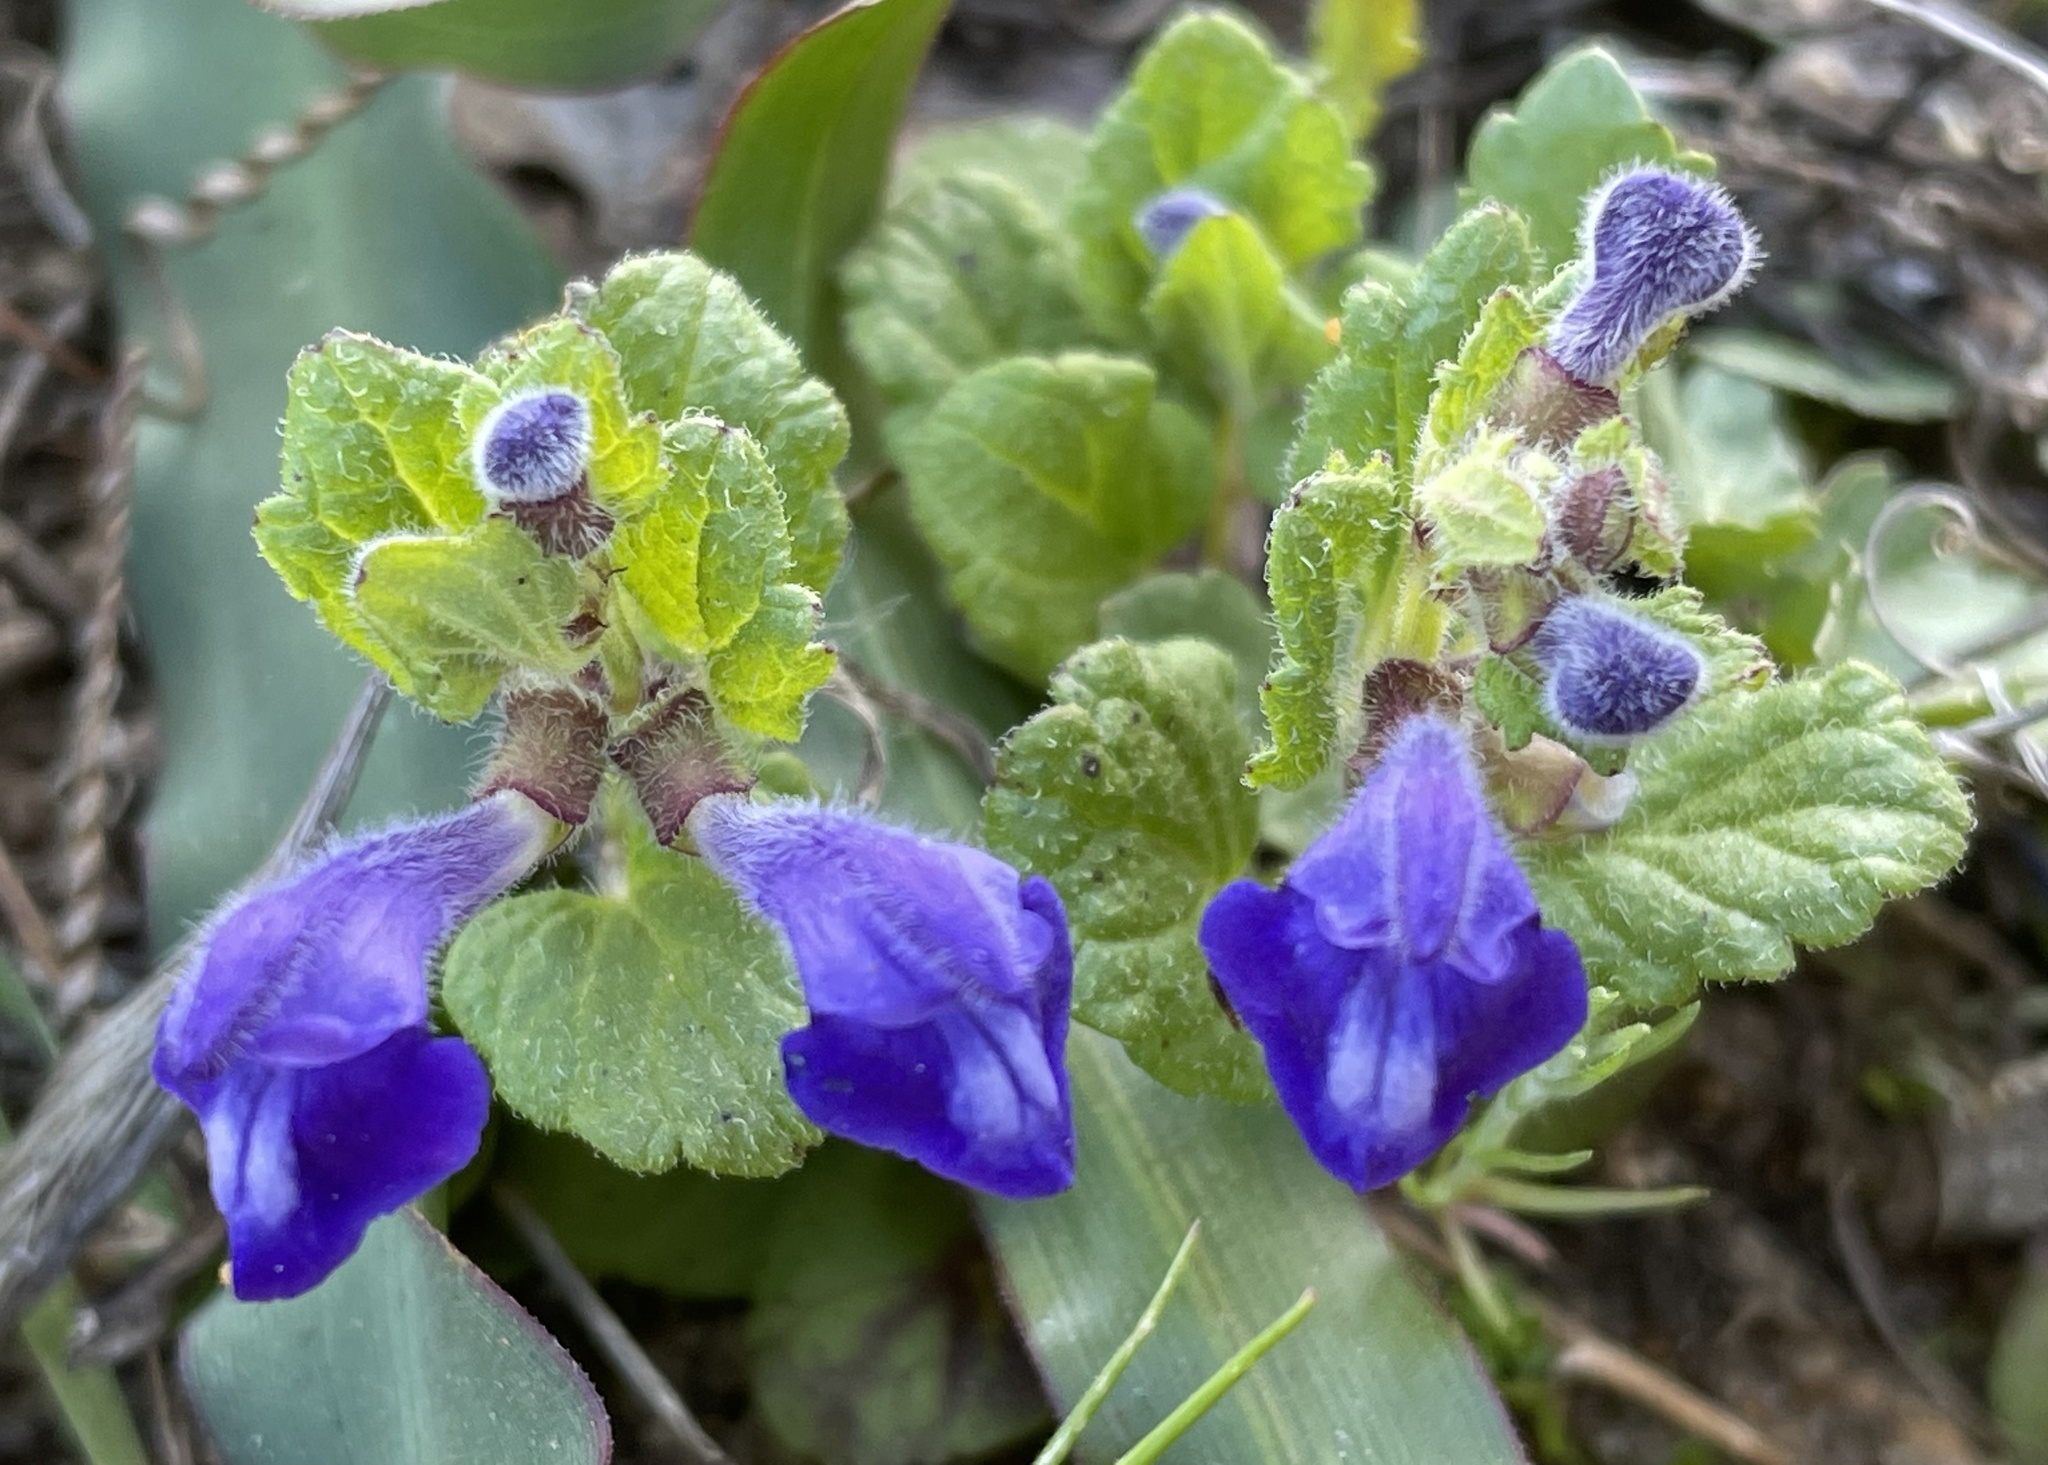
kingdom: Plantae
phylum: Tracheophyta
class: Magnoliopsida
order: Lamiales
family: Lamiaceae
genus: Scutellaria
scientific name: Scutellaria tuberosa
